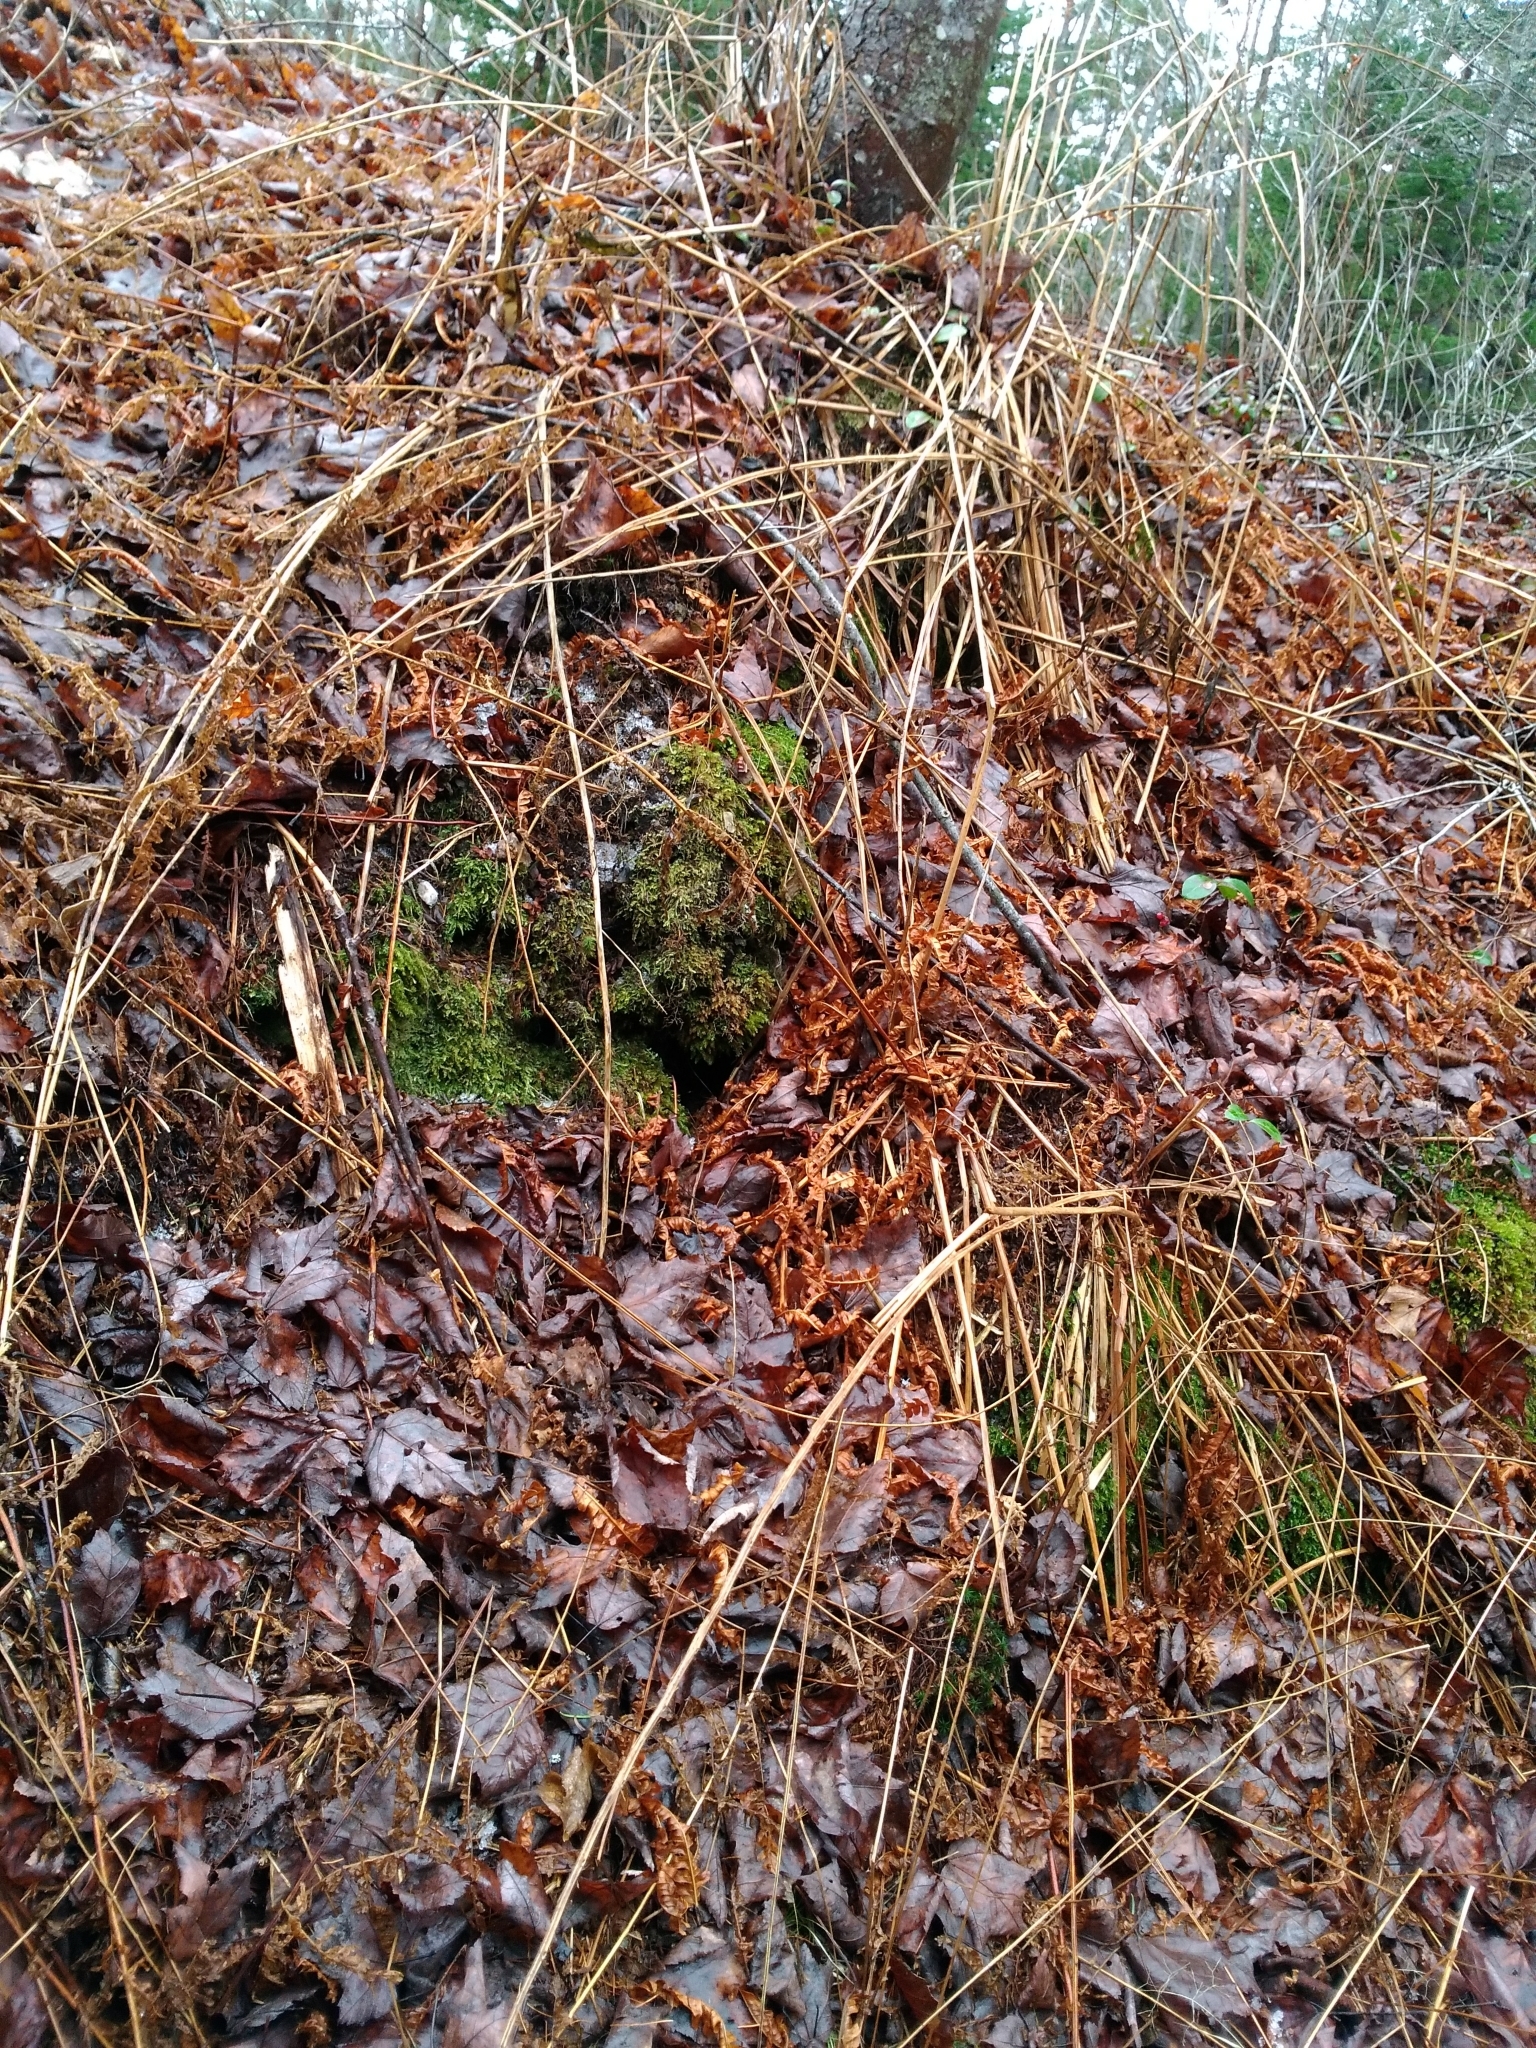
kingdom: Plantae
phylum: Tracheophyta
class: Polypodiopsida
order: Osmundales
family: Osmundaceae
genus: Osmundastrum
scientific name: Osmundastrum cinnamomeum
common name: Cinnamon fern
